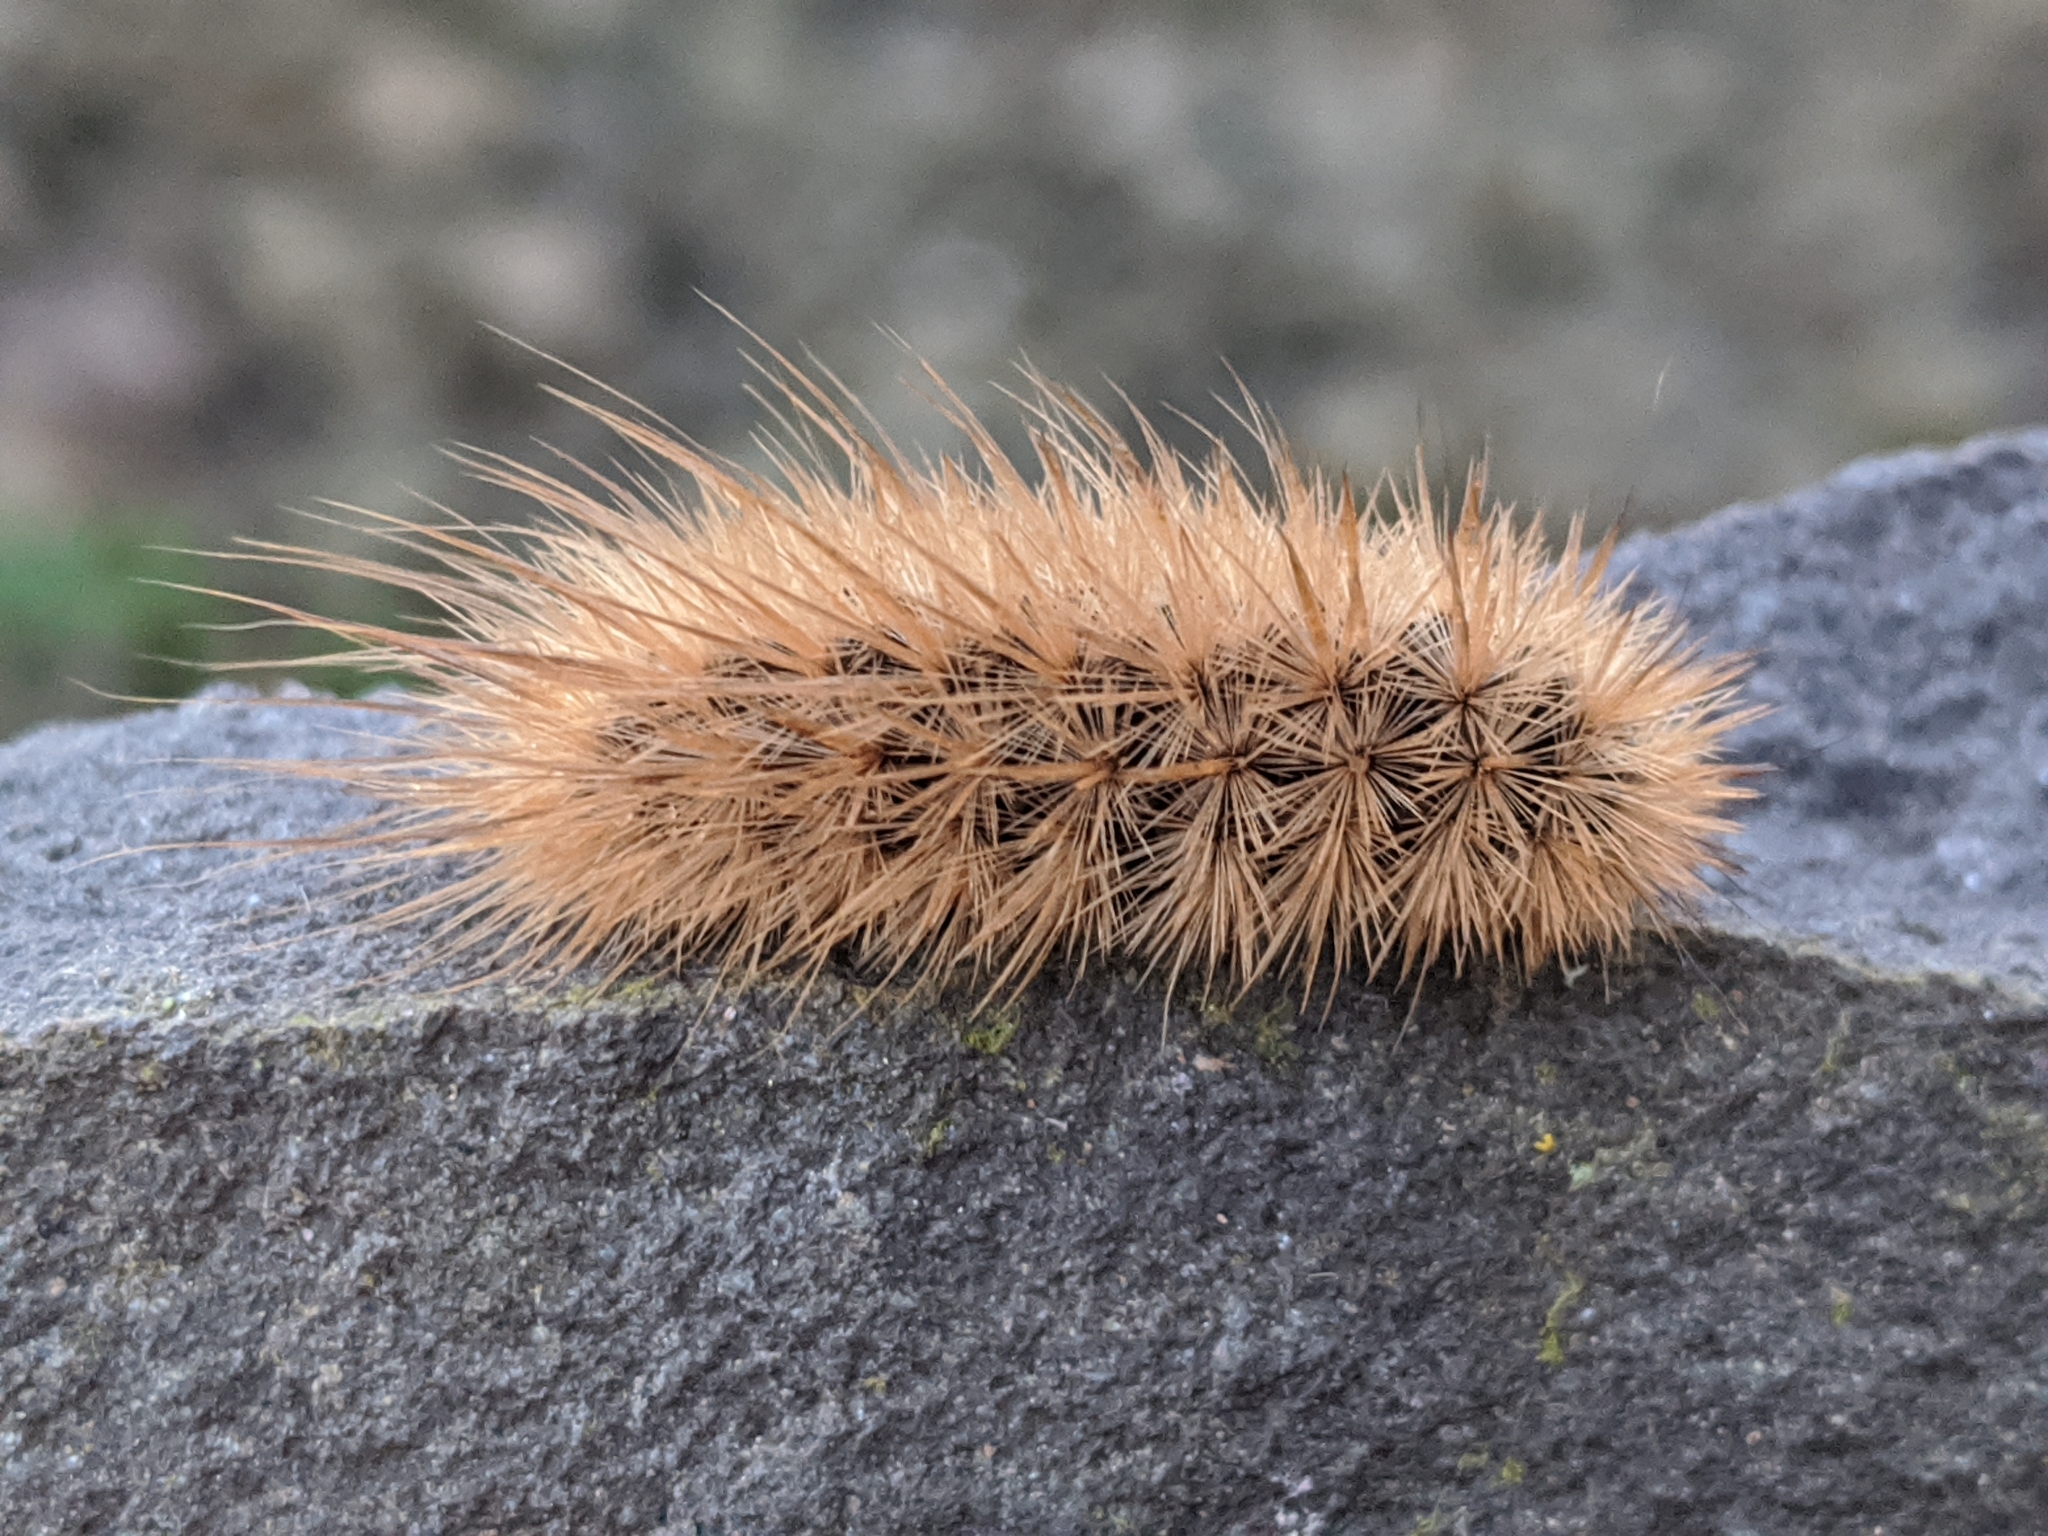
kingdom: Animalia
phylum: Arthropoda
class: Insecta
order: Lepidoptera
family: Erebidae
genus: Phragmatobia
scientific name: Phragmatobia fuliginosa
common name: Ruby tiger
